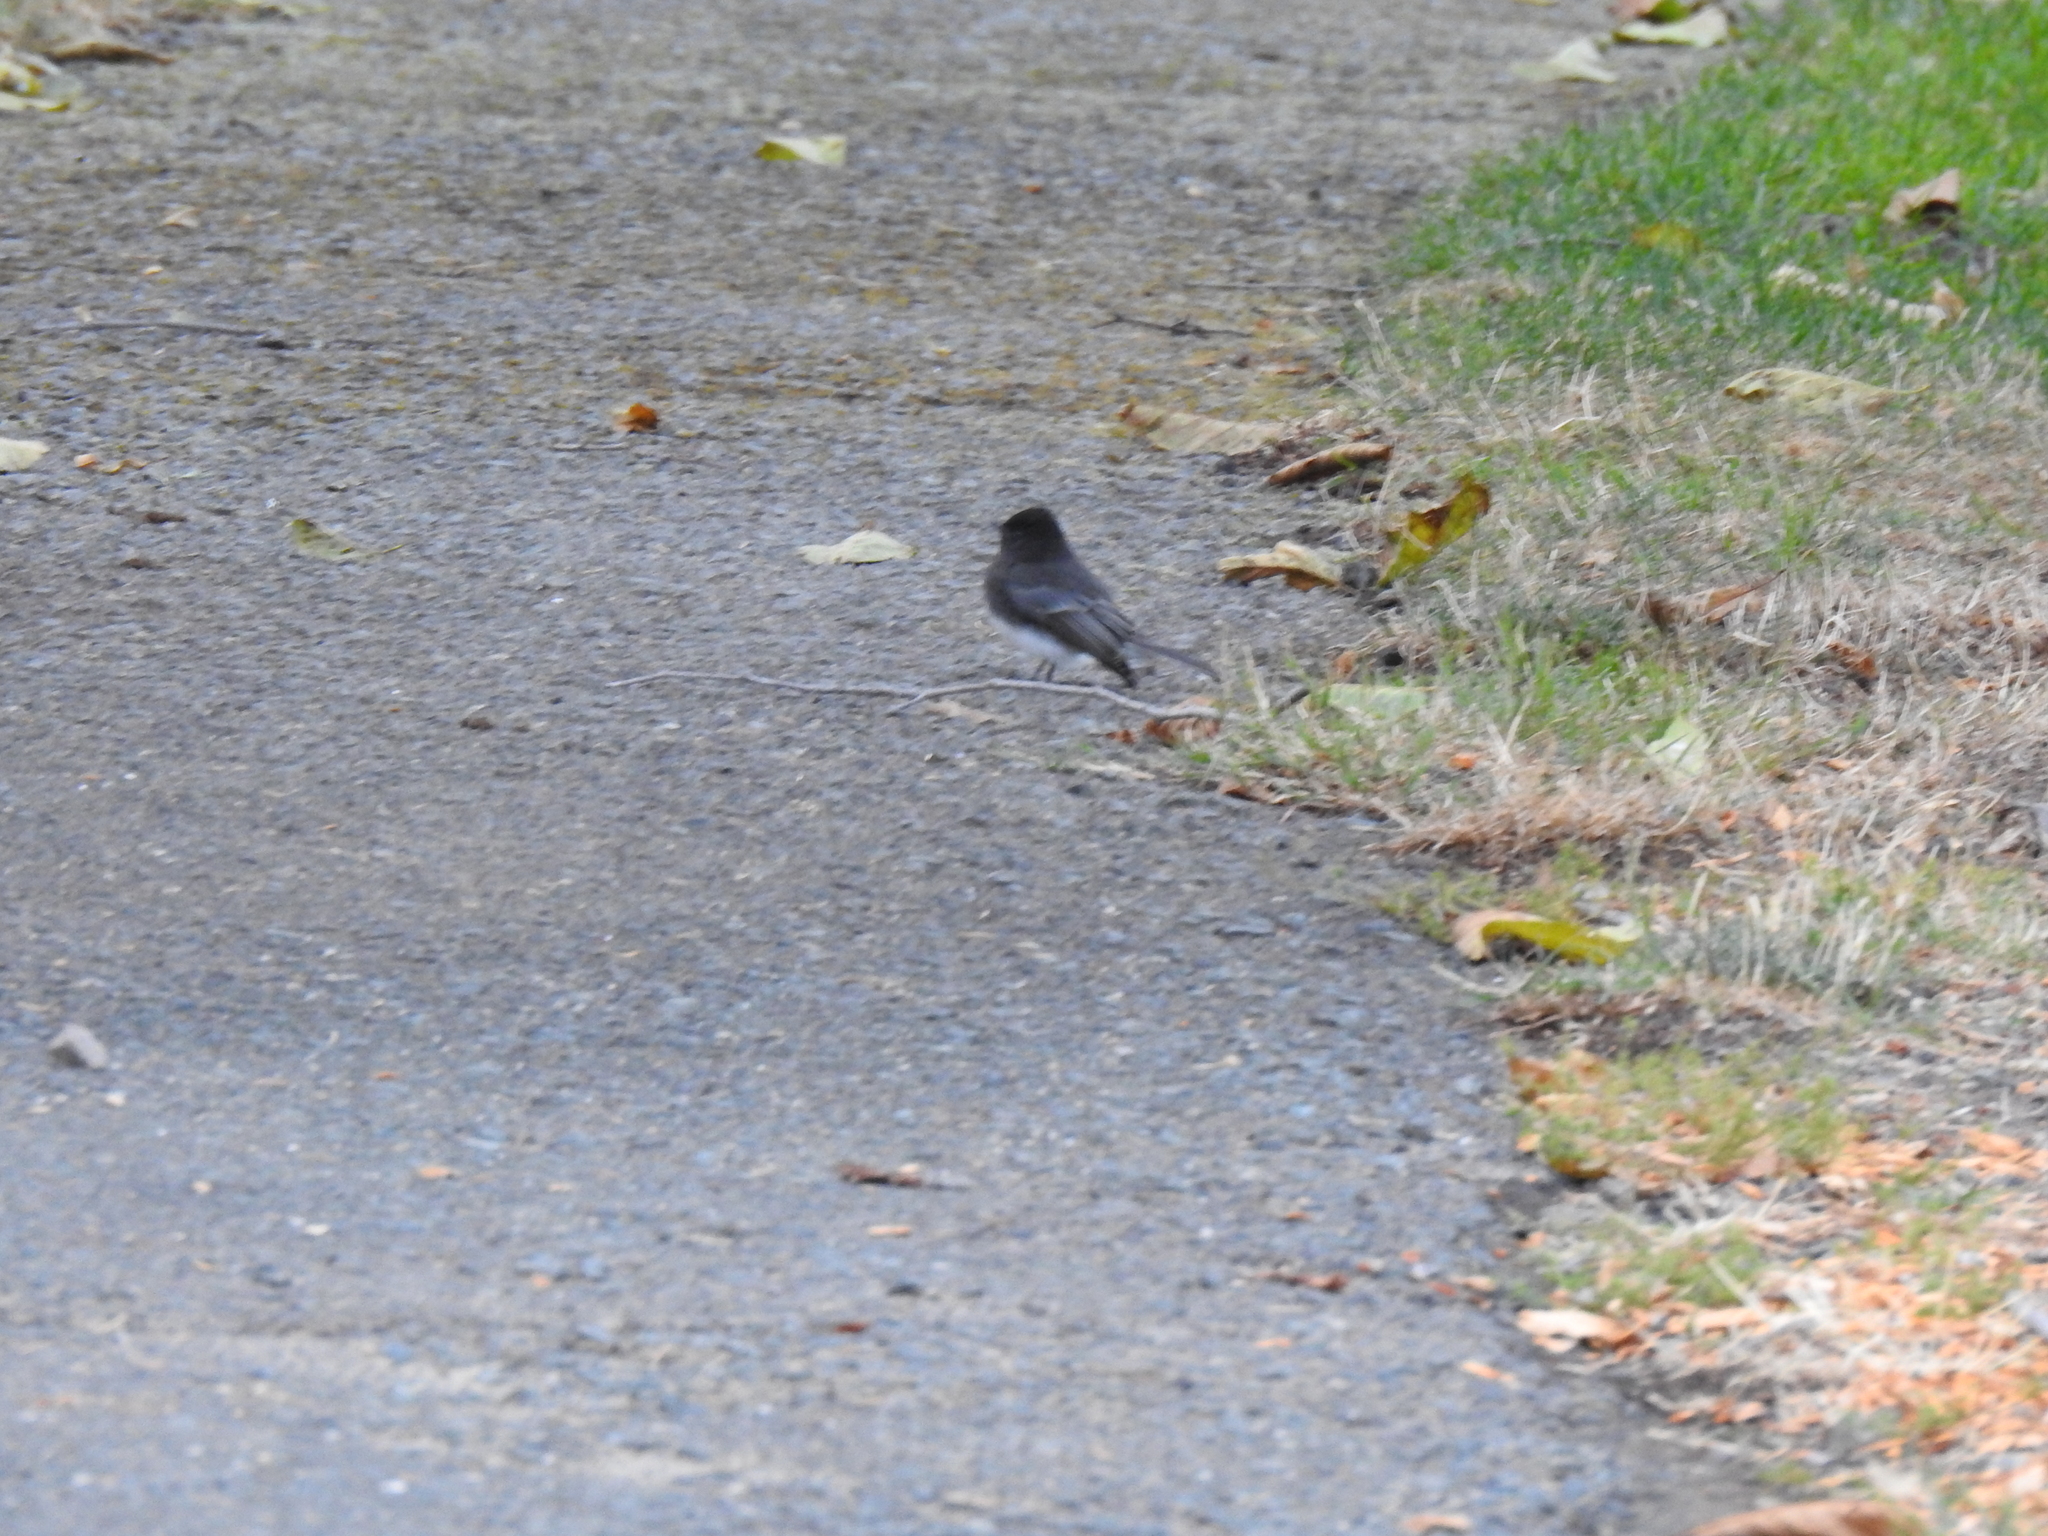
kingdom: Animalia
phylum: Chordata
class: Aves
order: Passeriformes
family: Tyrannidae
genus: Sayornis
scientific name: Sayornis nigricans
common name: Black phoebe
